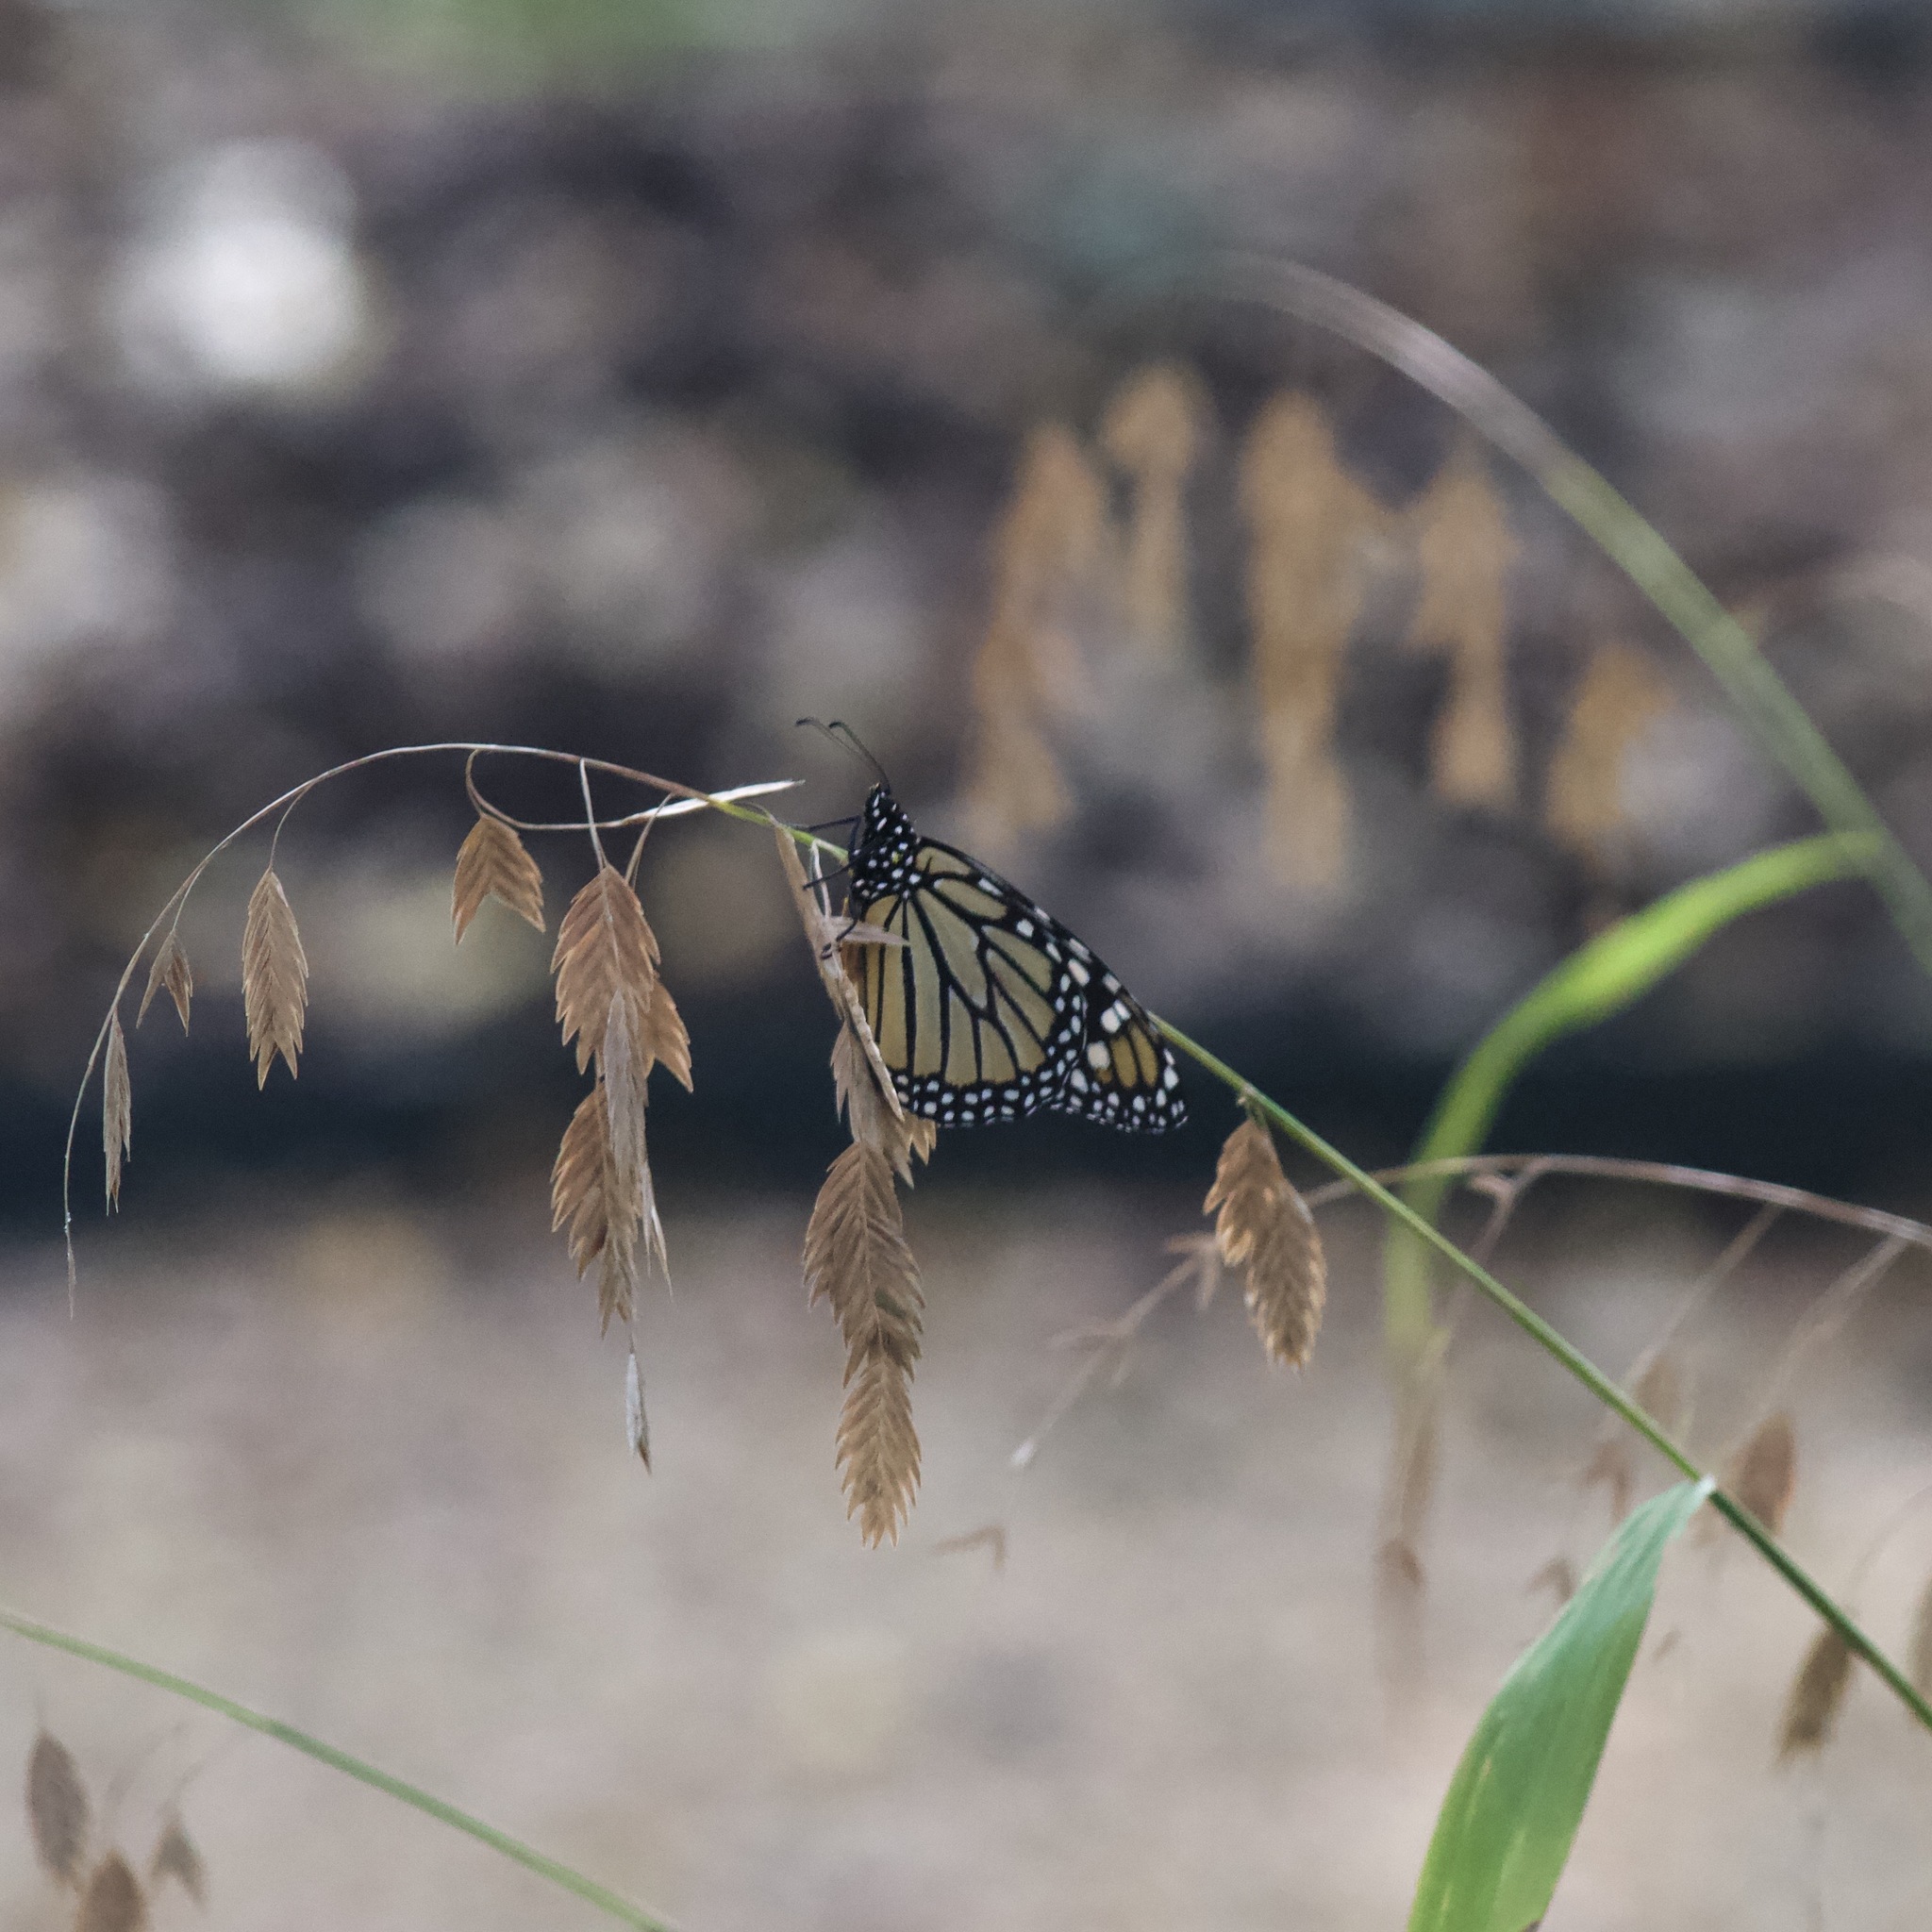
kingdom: Animalia
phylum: Arthropoda
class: Insecta
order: Lepidoptera
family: Nymphalidae
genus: Danaus
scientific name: Danaus plexippus
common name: Monarch
